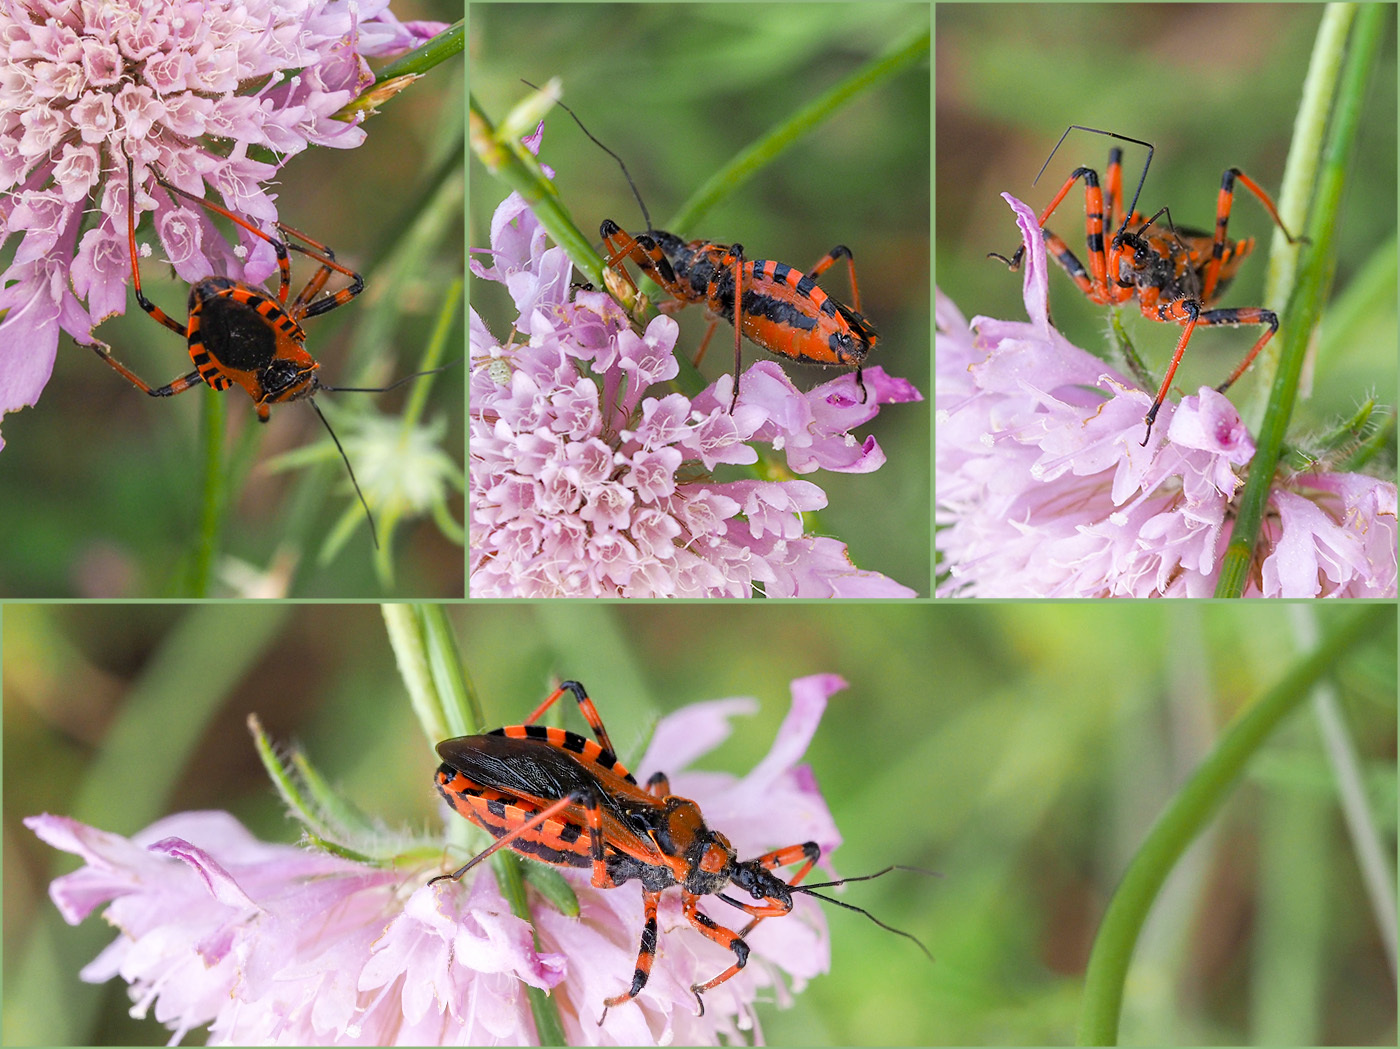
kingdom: Animalia
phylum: Arthropoda
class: Insecta
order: Hemiptera
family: Reduviidae
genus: Rhynocoris
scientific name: Rhynocoris iracundus
